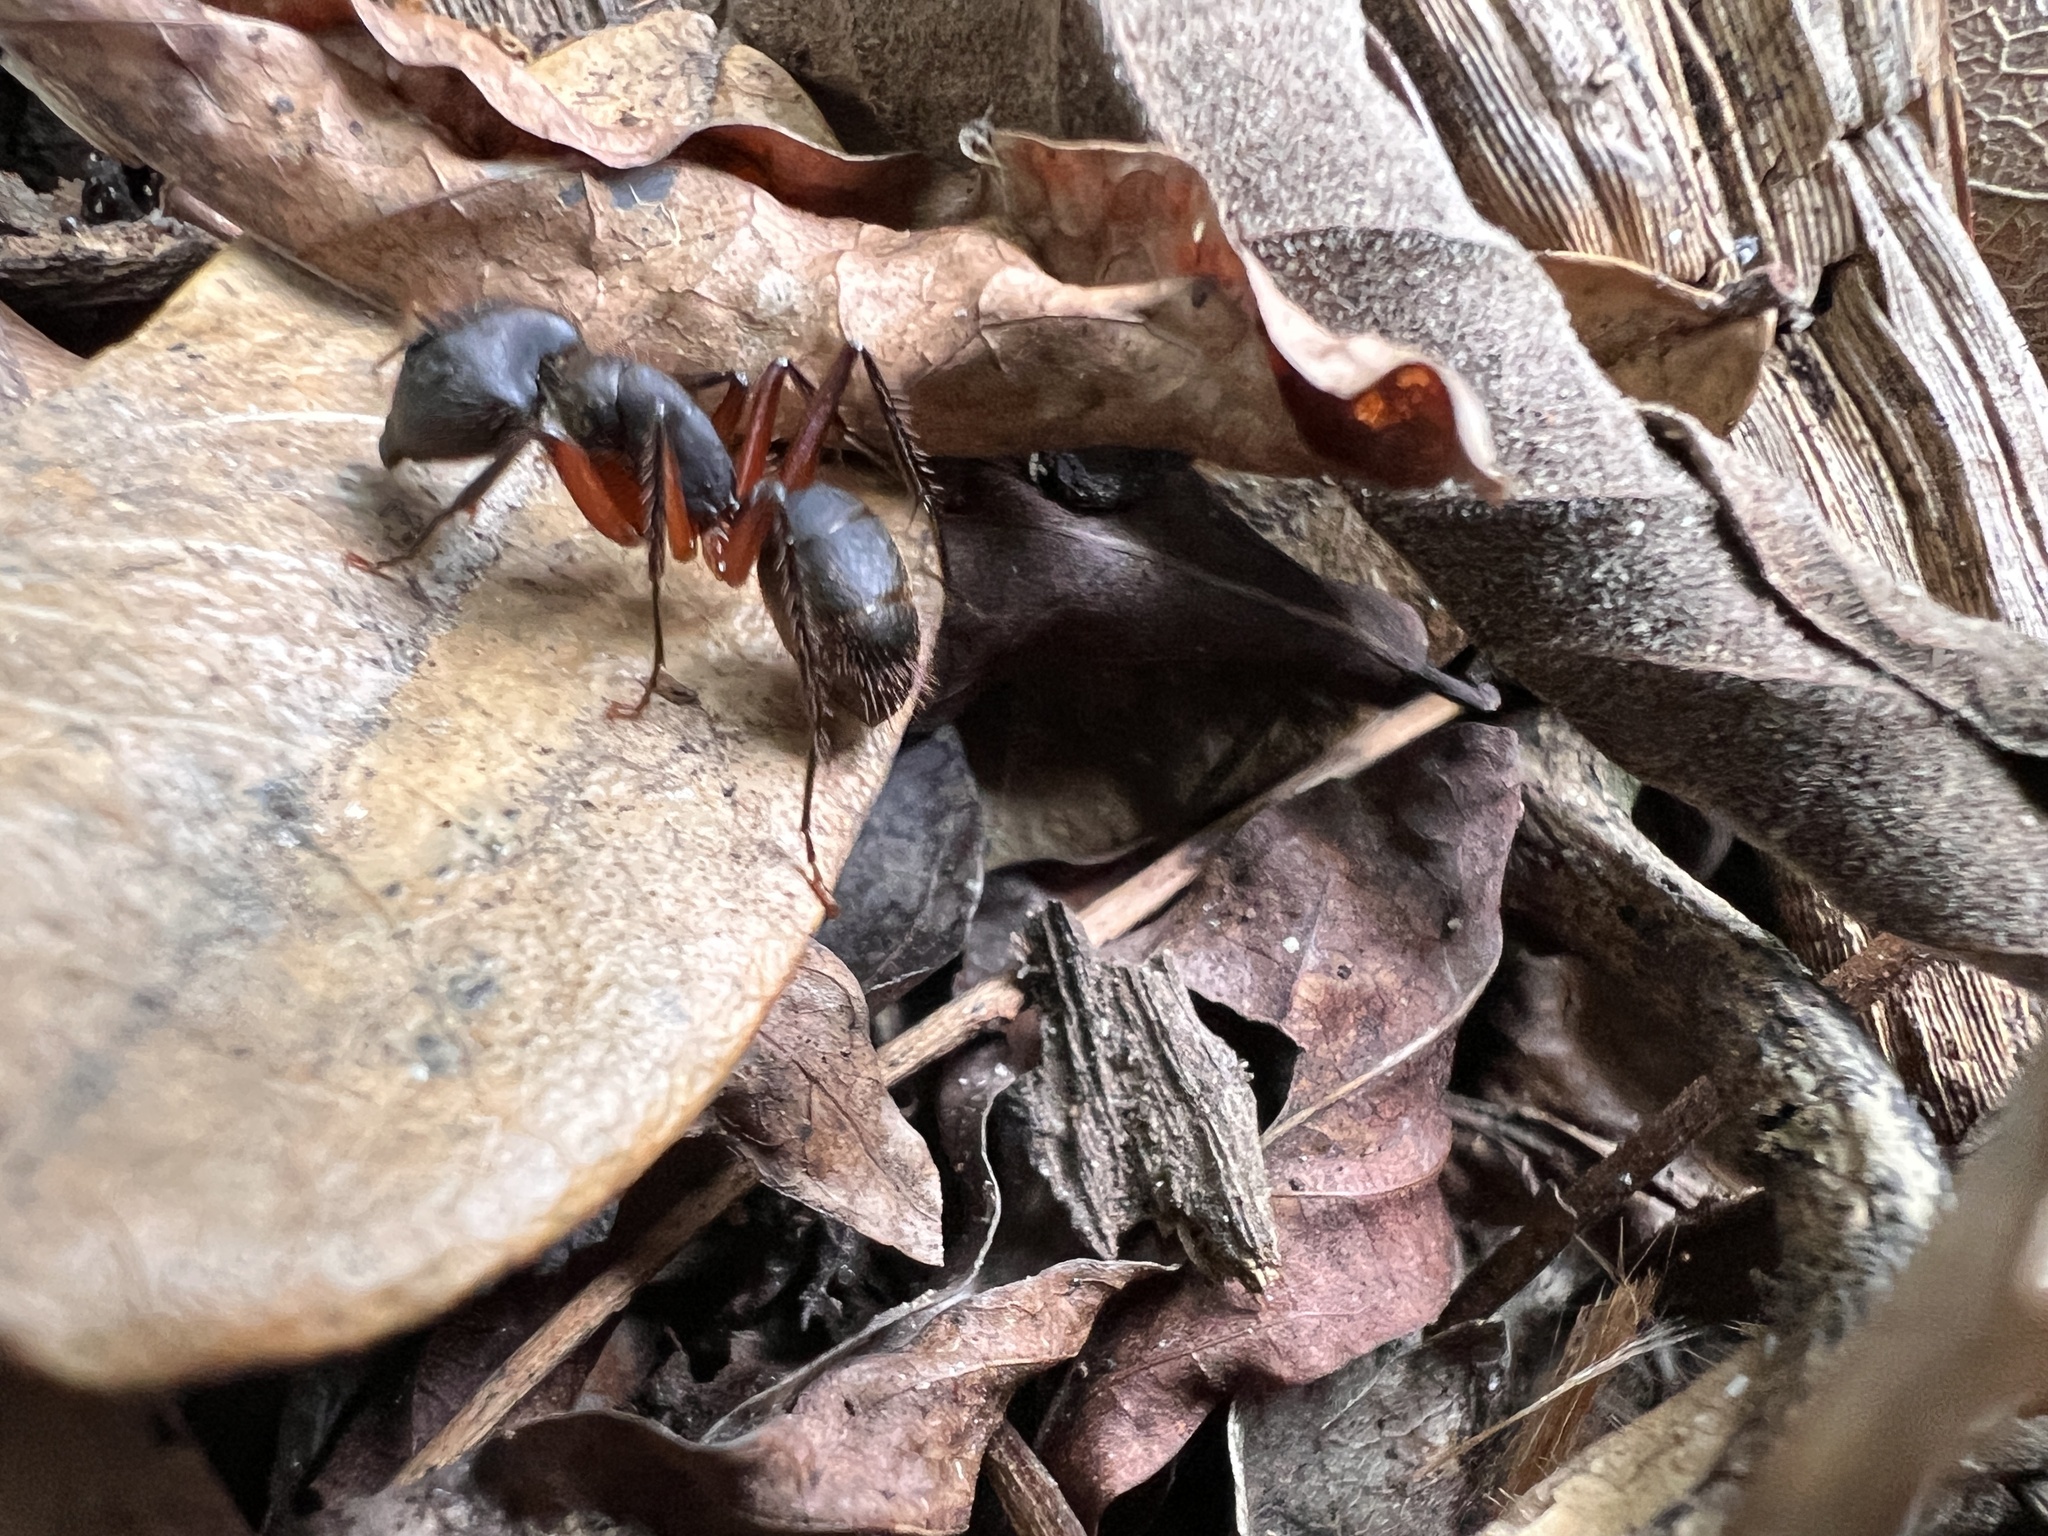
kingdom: Animalia
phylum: Arthropoda
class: Insecta
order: Hymenoptera
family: Formicidae
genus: Camponotus
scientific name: Camponotus rufipes
